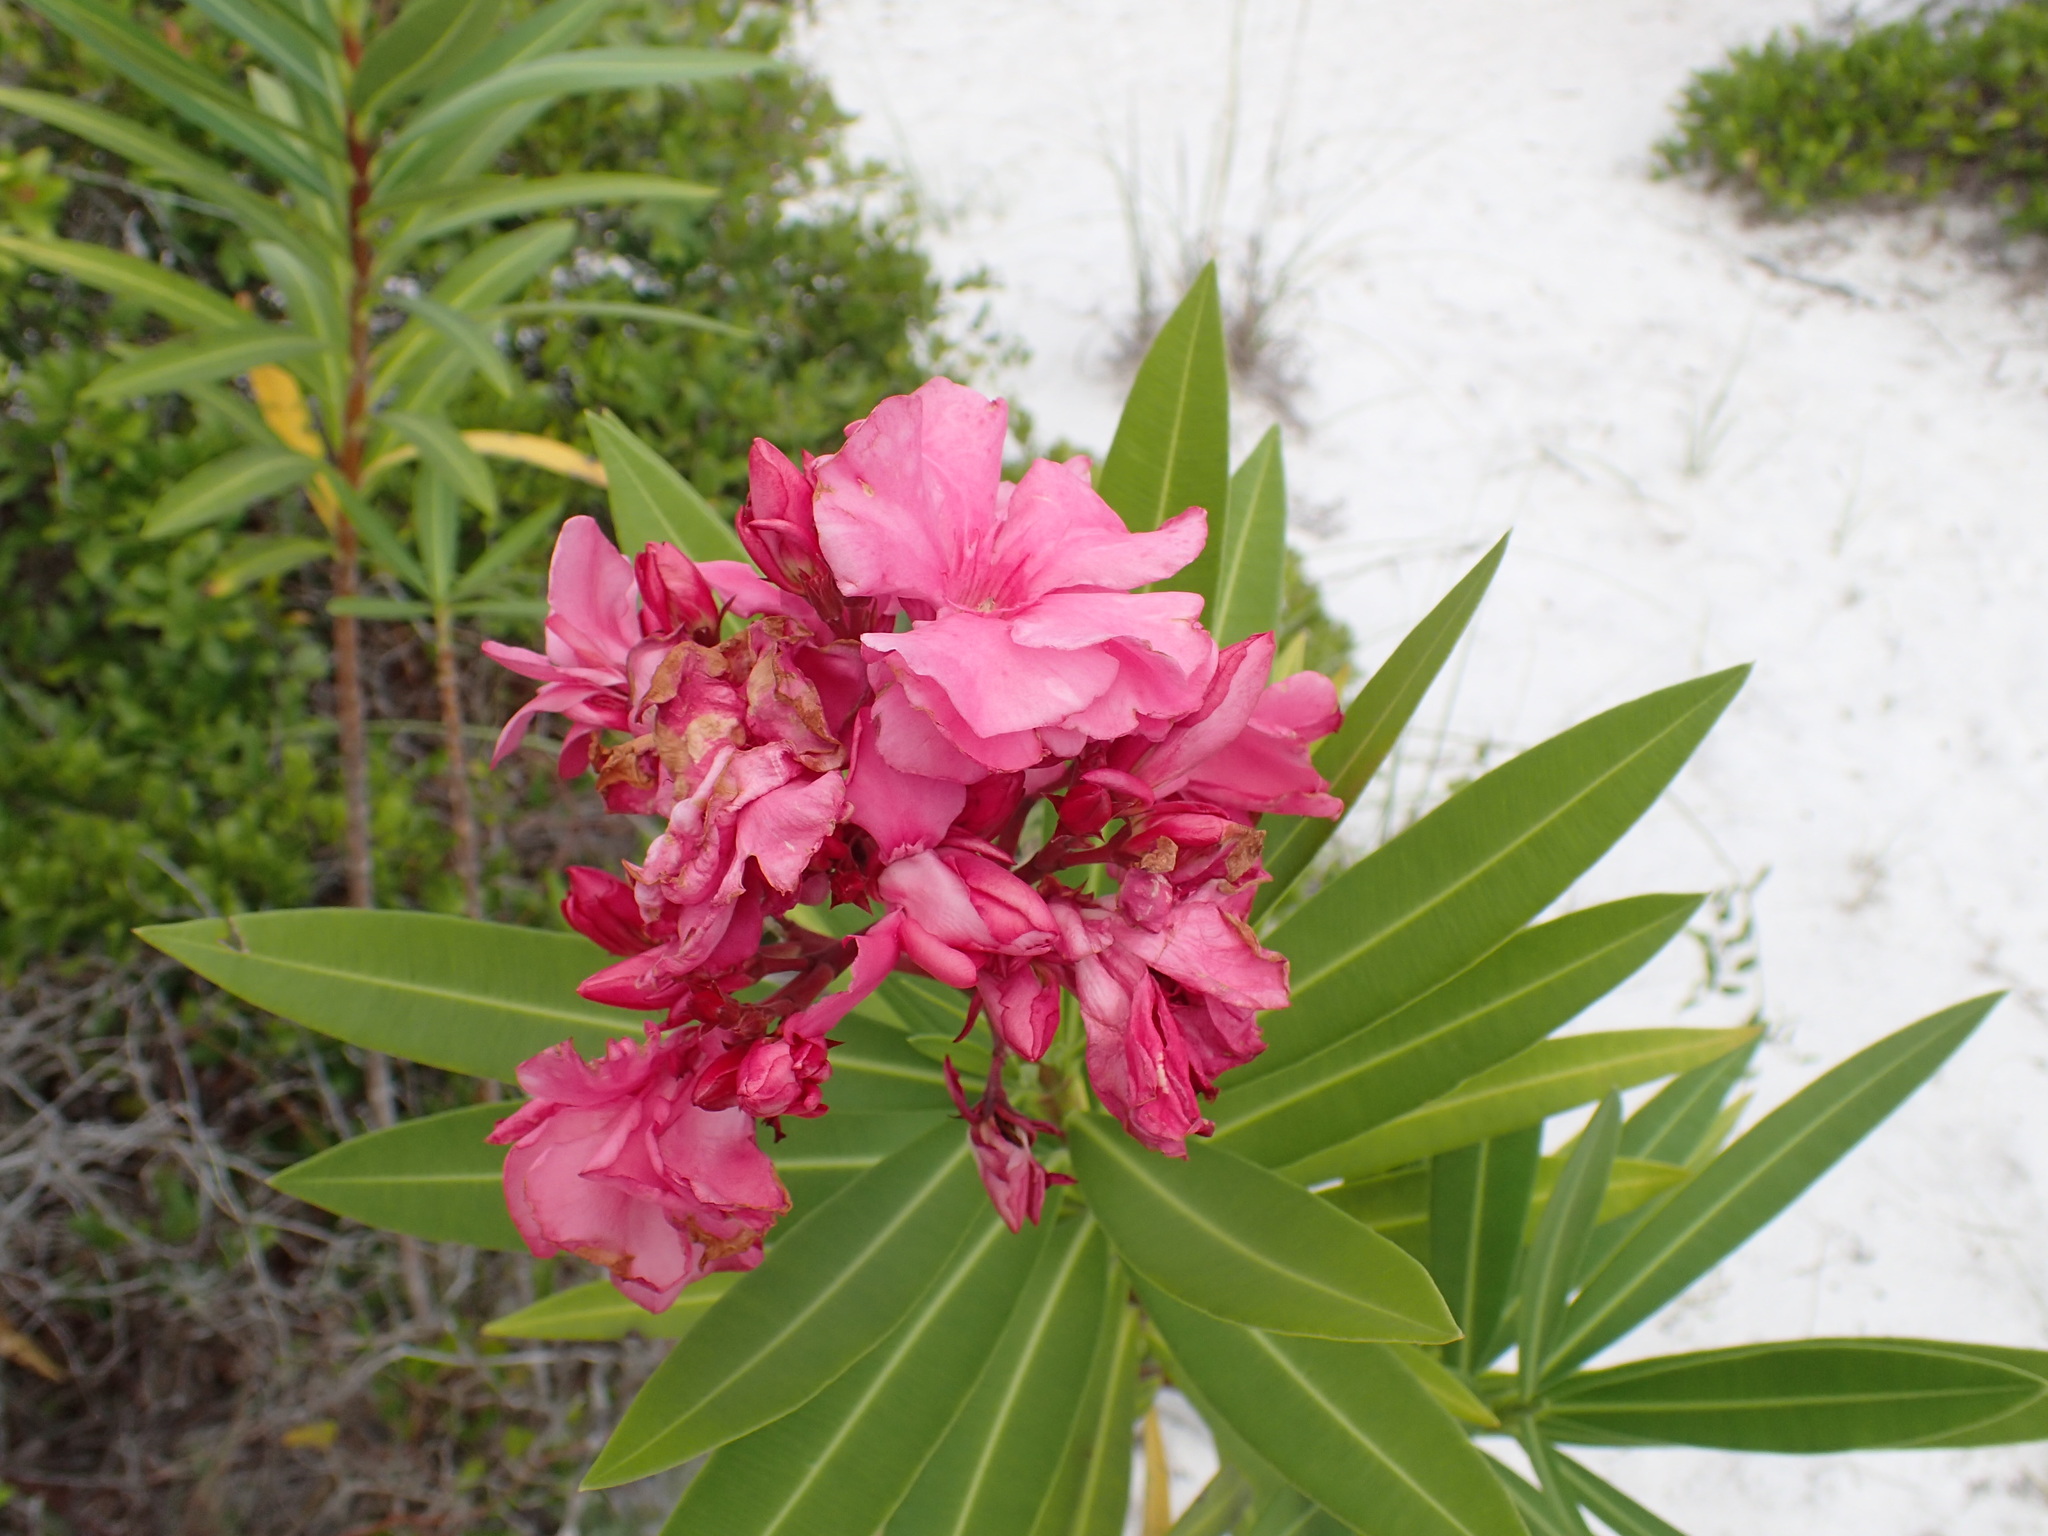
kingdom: Plantae
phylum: Tracheophyta
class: Magnoliopsida
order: Gentianales
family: Apocynaceae
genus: Nerium
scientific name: Nerium oleander
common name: Oleander
